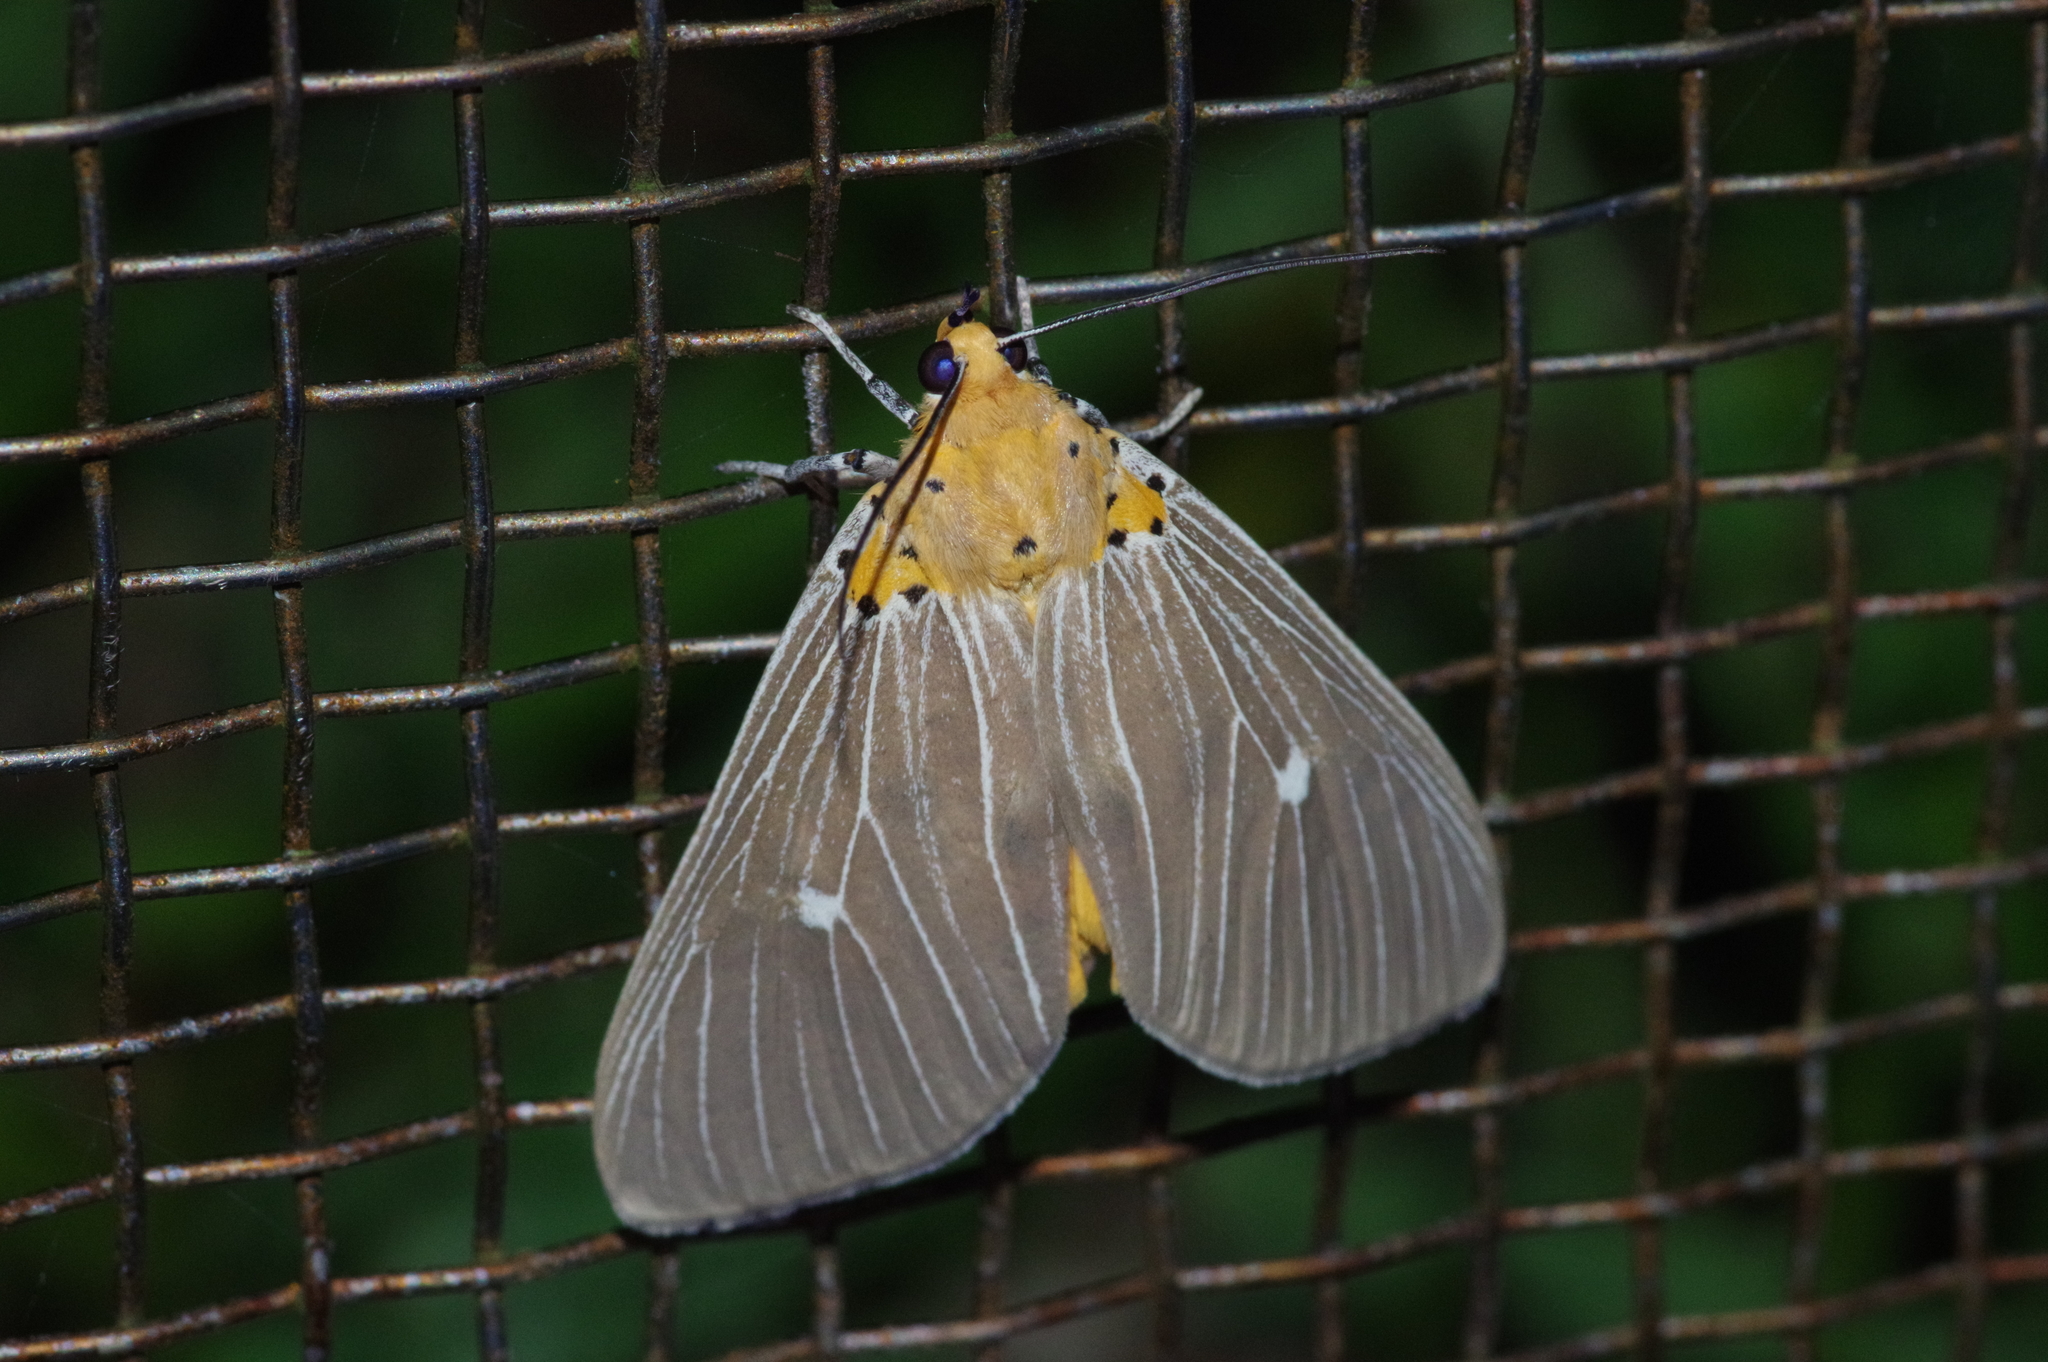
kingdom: Animalia
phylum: Arthropoda
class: Insecta
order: Lepidoptera
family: Erebidae
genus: Asota
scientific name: Asota caricae
